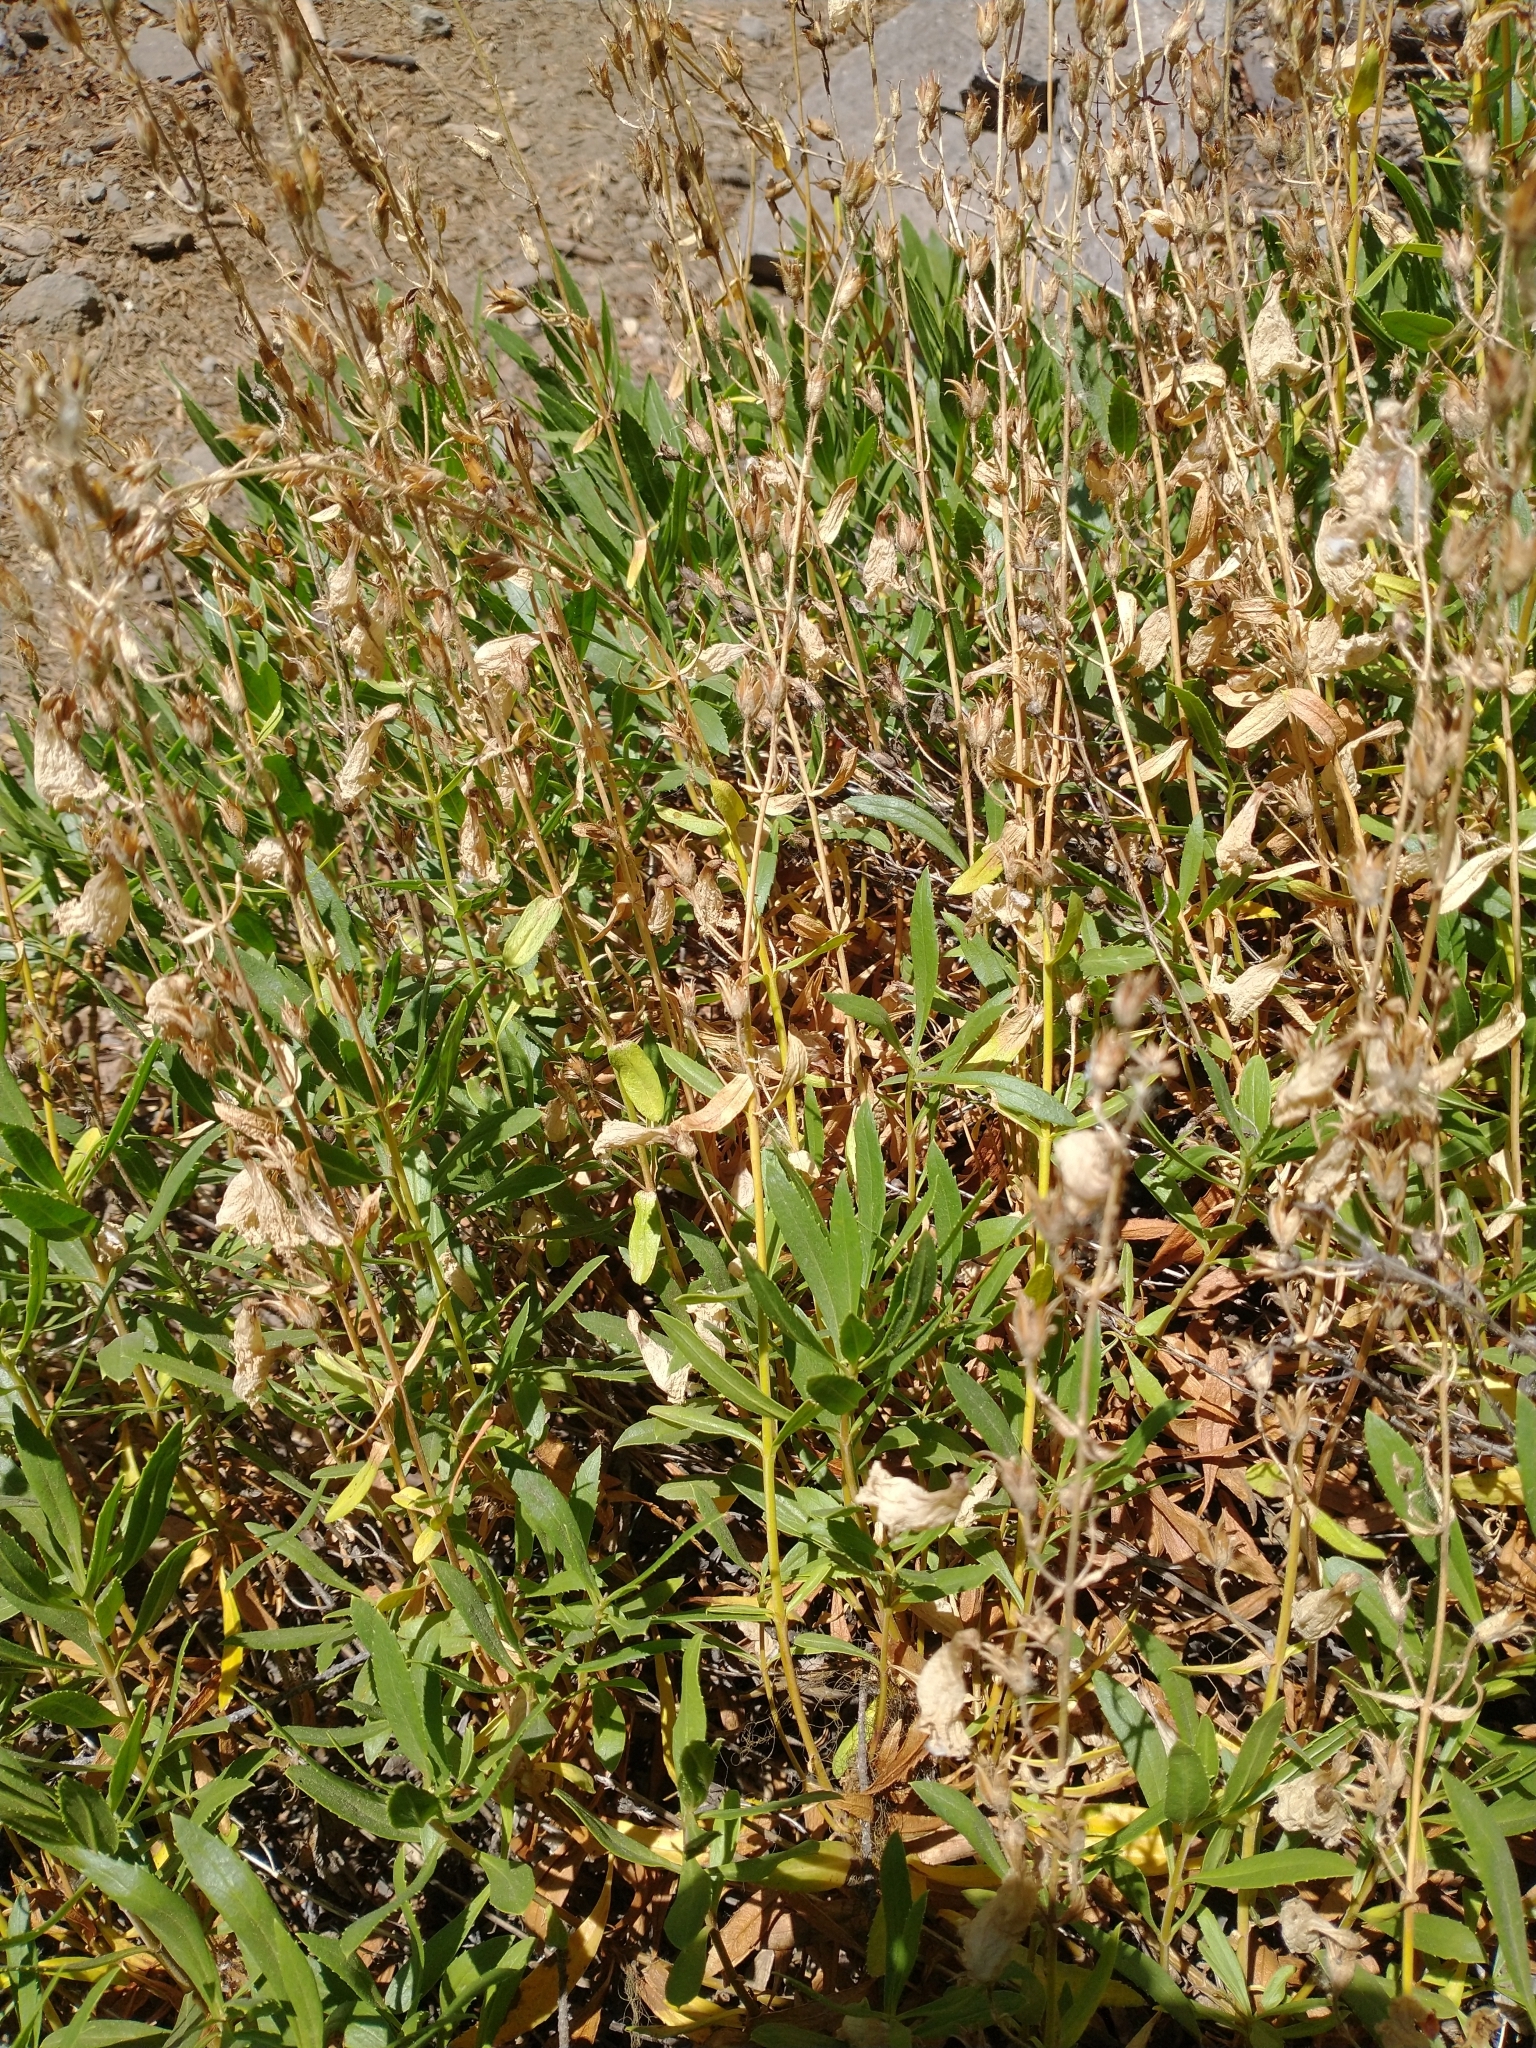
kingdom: Plantae
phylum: Tracheophyta
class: Magnoliopsida
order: Lamiales
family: Plantaginaceae
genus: Penstemon
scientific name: Penstemon fruticosus
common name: Bush penstemon
